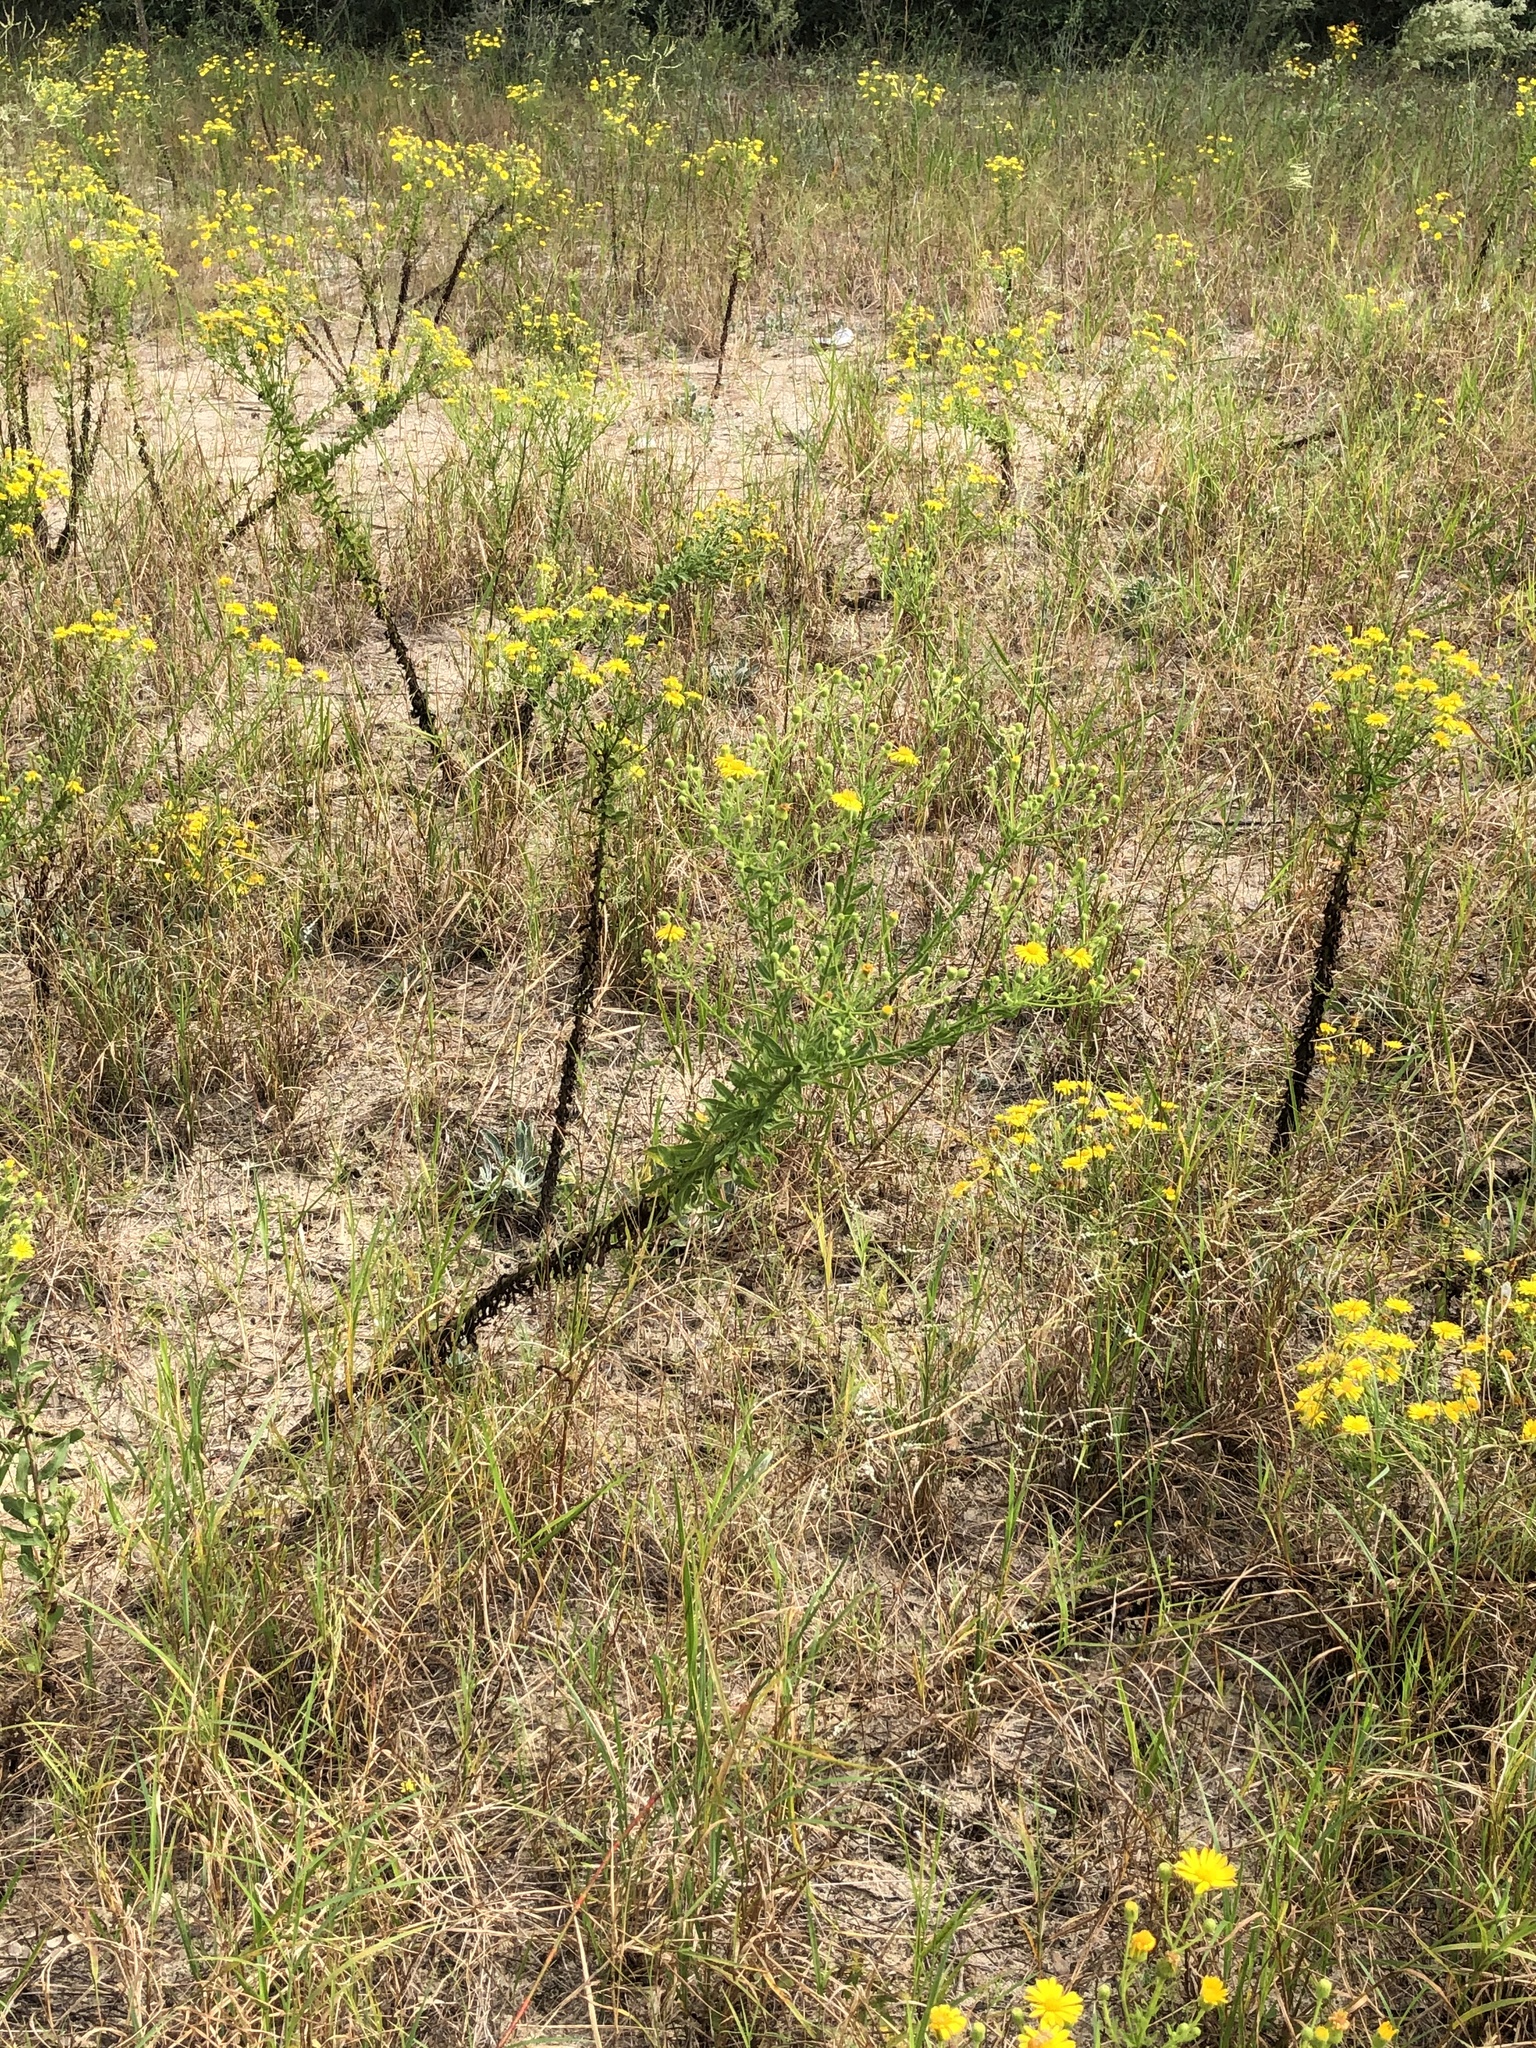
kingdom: Plantae
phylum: Tracheophyta
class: Magnoliopsida
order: Asterales
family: Asteraceae
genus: Chrysopsis
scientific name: Chrysopsis scabrella
